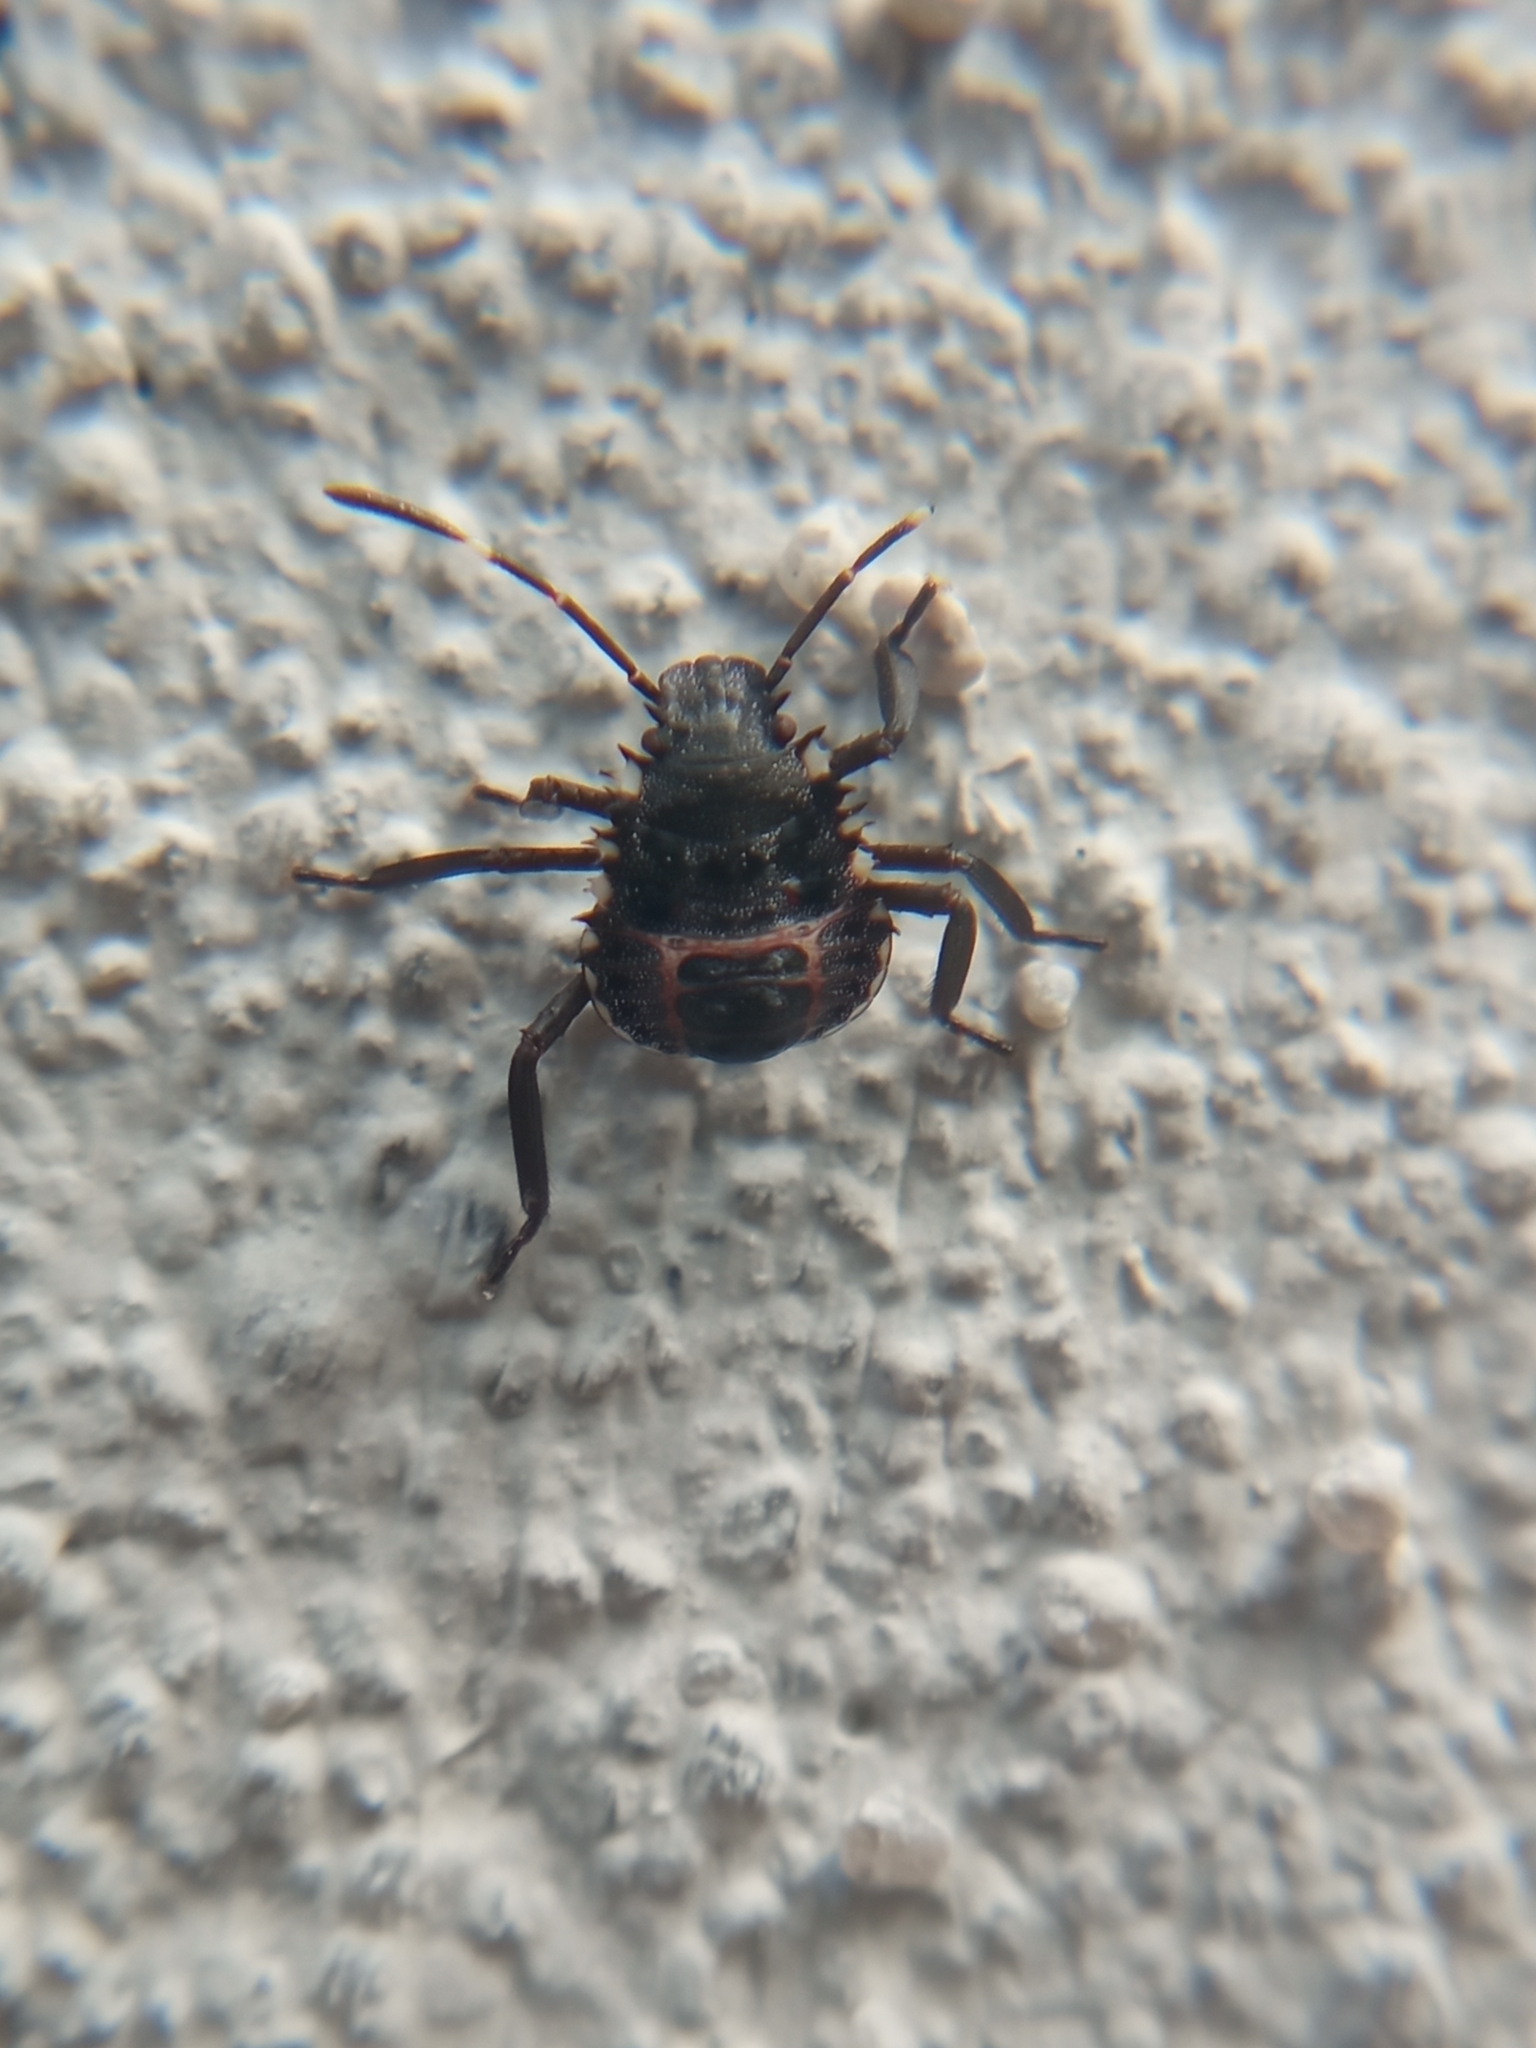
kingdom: Animalia
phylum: Arthropoda
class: Insecta
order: Hemiptera
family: Pentatomidae
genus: Halyomorpha
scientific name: Halyomorpha halys
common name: Brown marmorated stink bug
